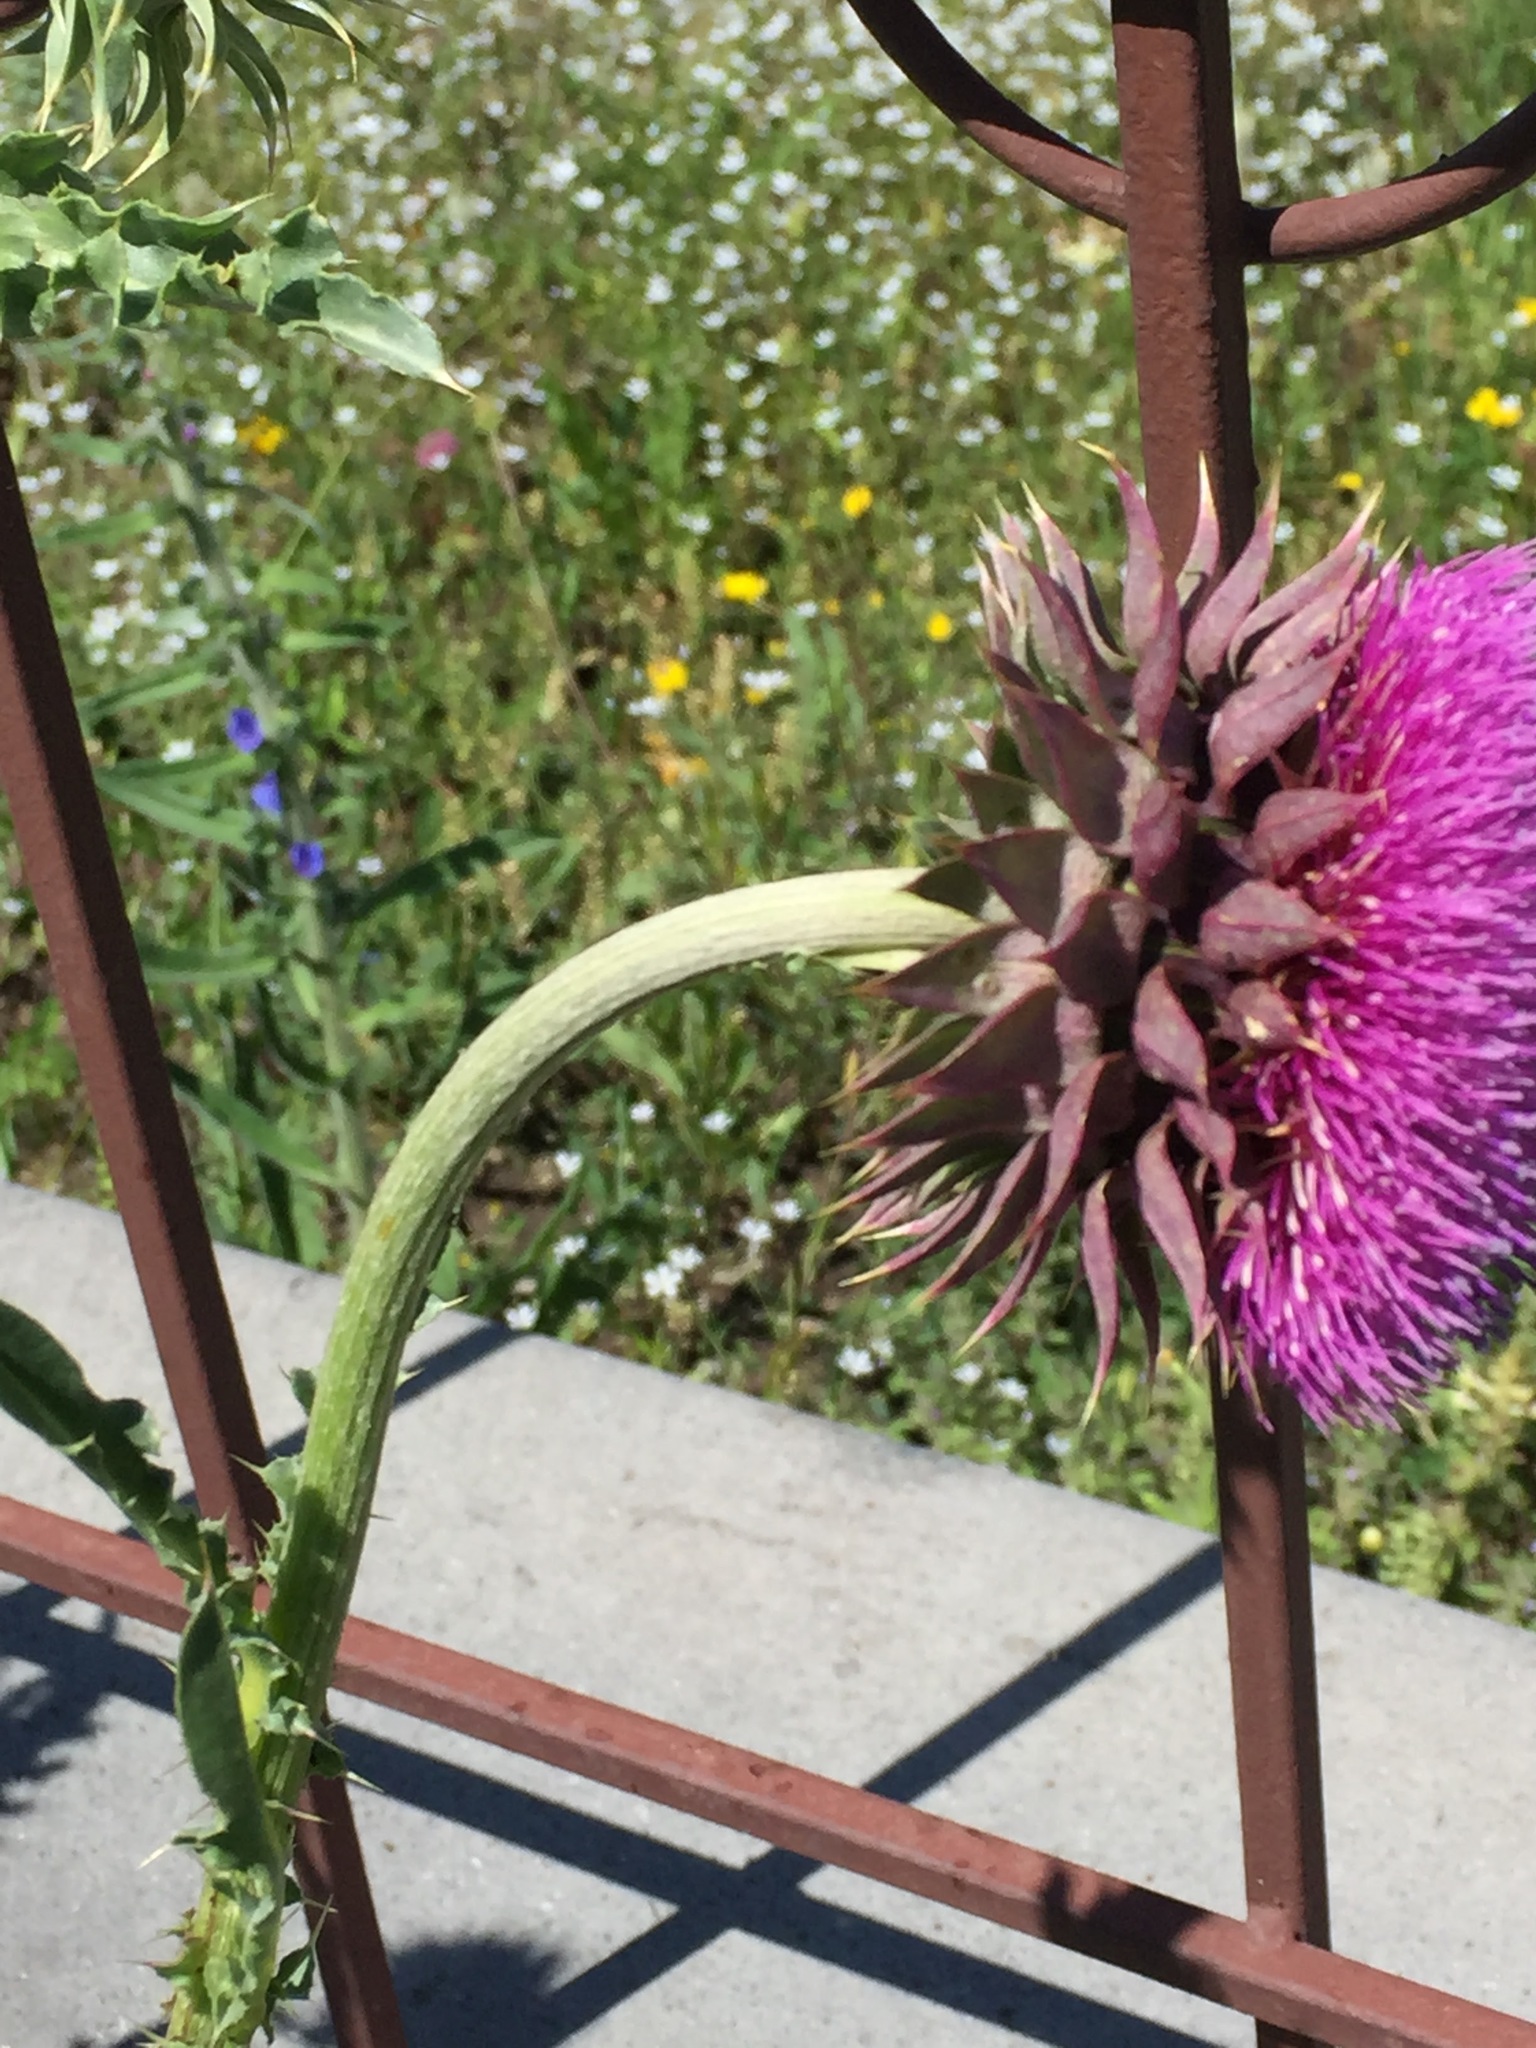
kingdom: Plantae
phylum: Tracheophyta
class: Magnoliopsida
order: Asterales
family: Asteraceae
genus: Carduus
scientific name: Carduus nutans
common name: Musk thistle
